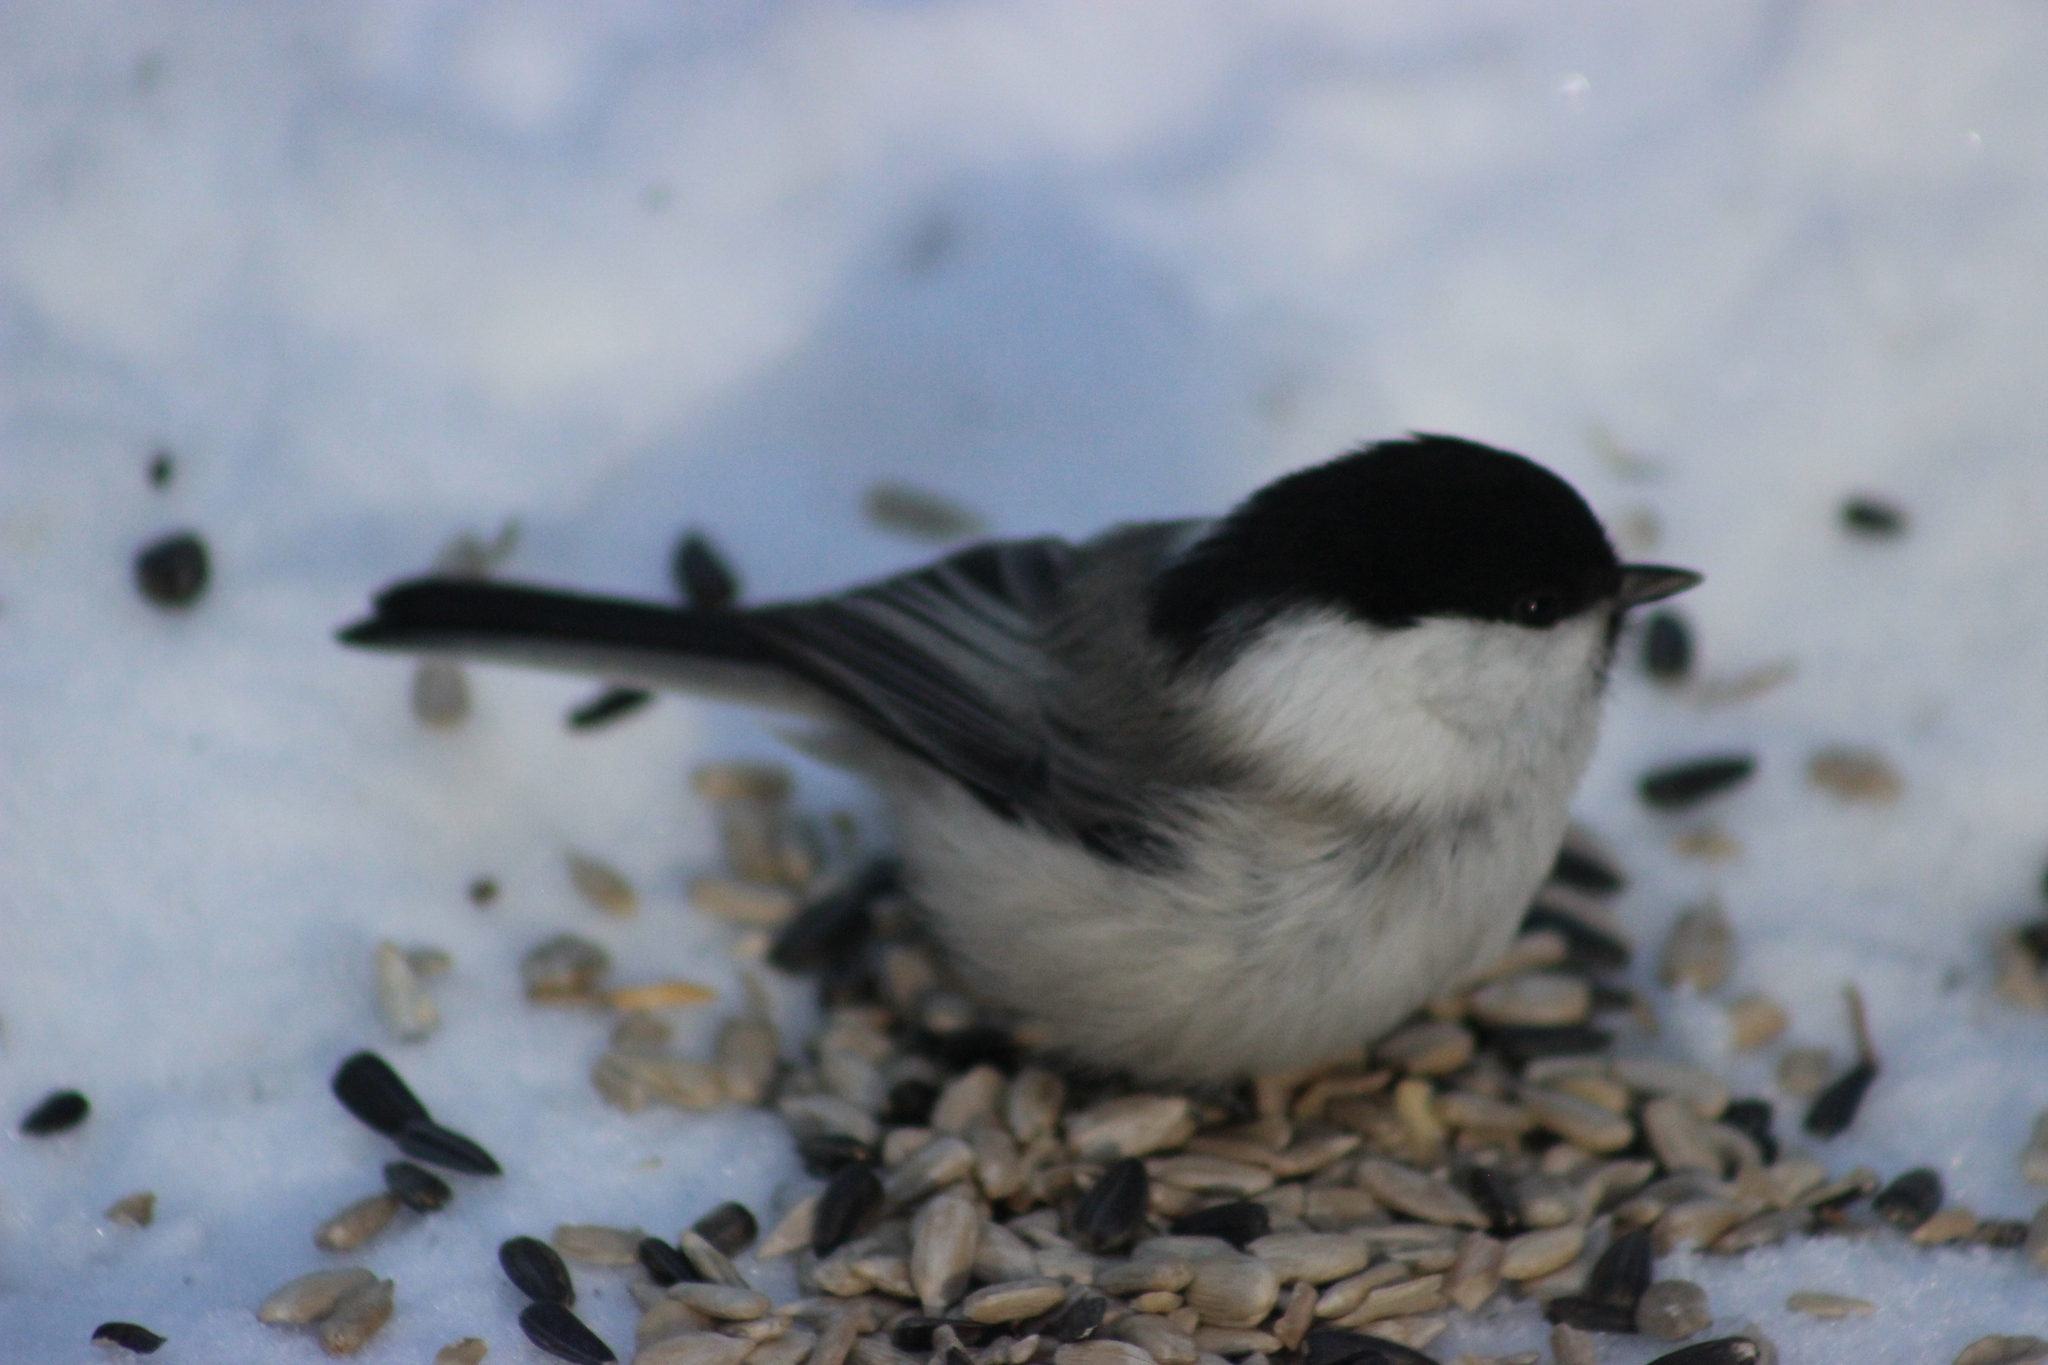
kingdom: Animalia
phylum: Chordata
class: Aves
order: Passeriformes
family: Paridae
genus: Poecile
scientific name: Poecile montanus
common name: Willow tit
